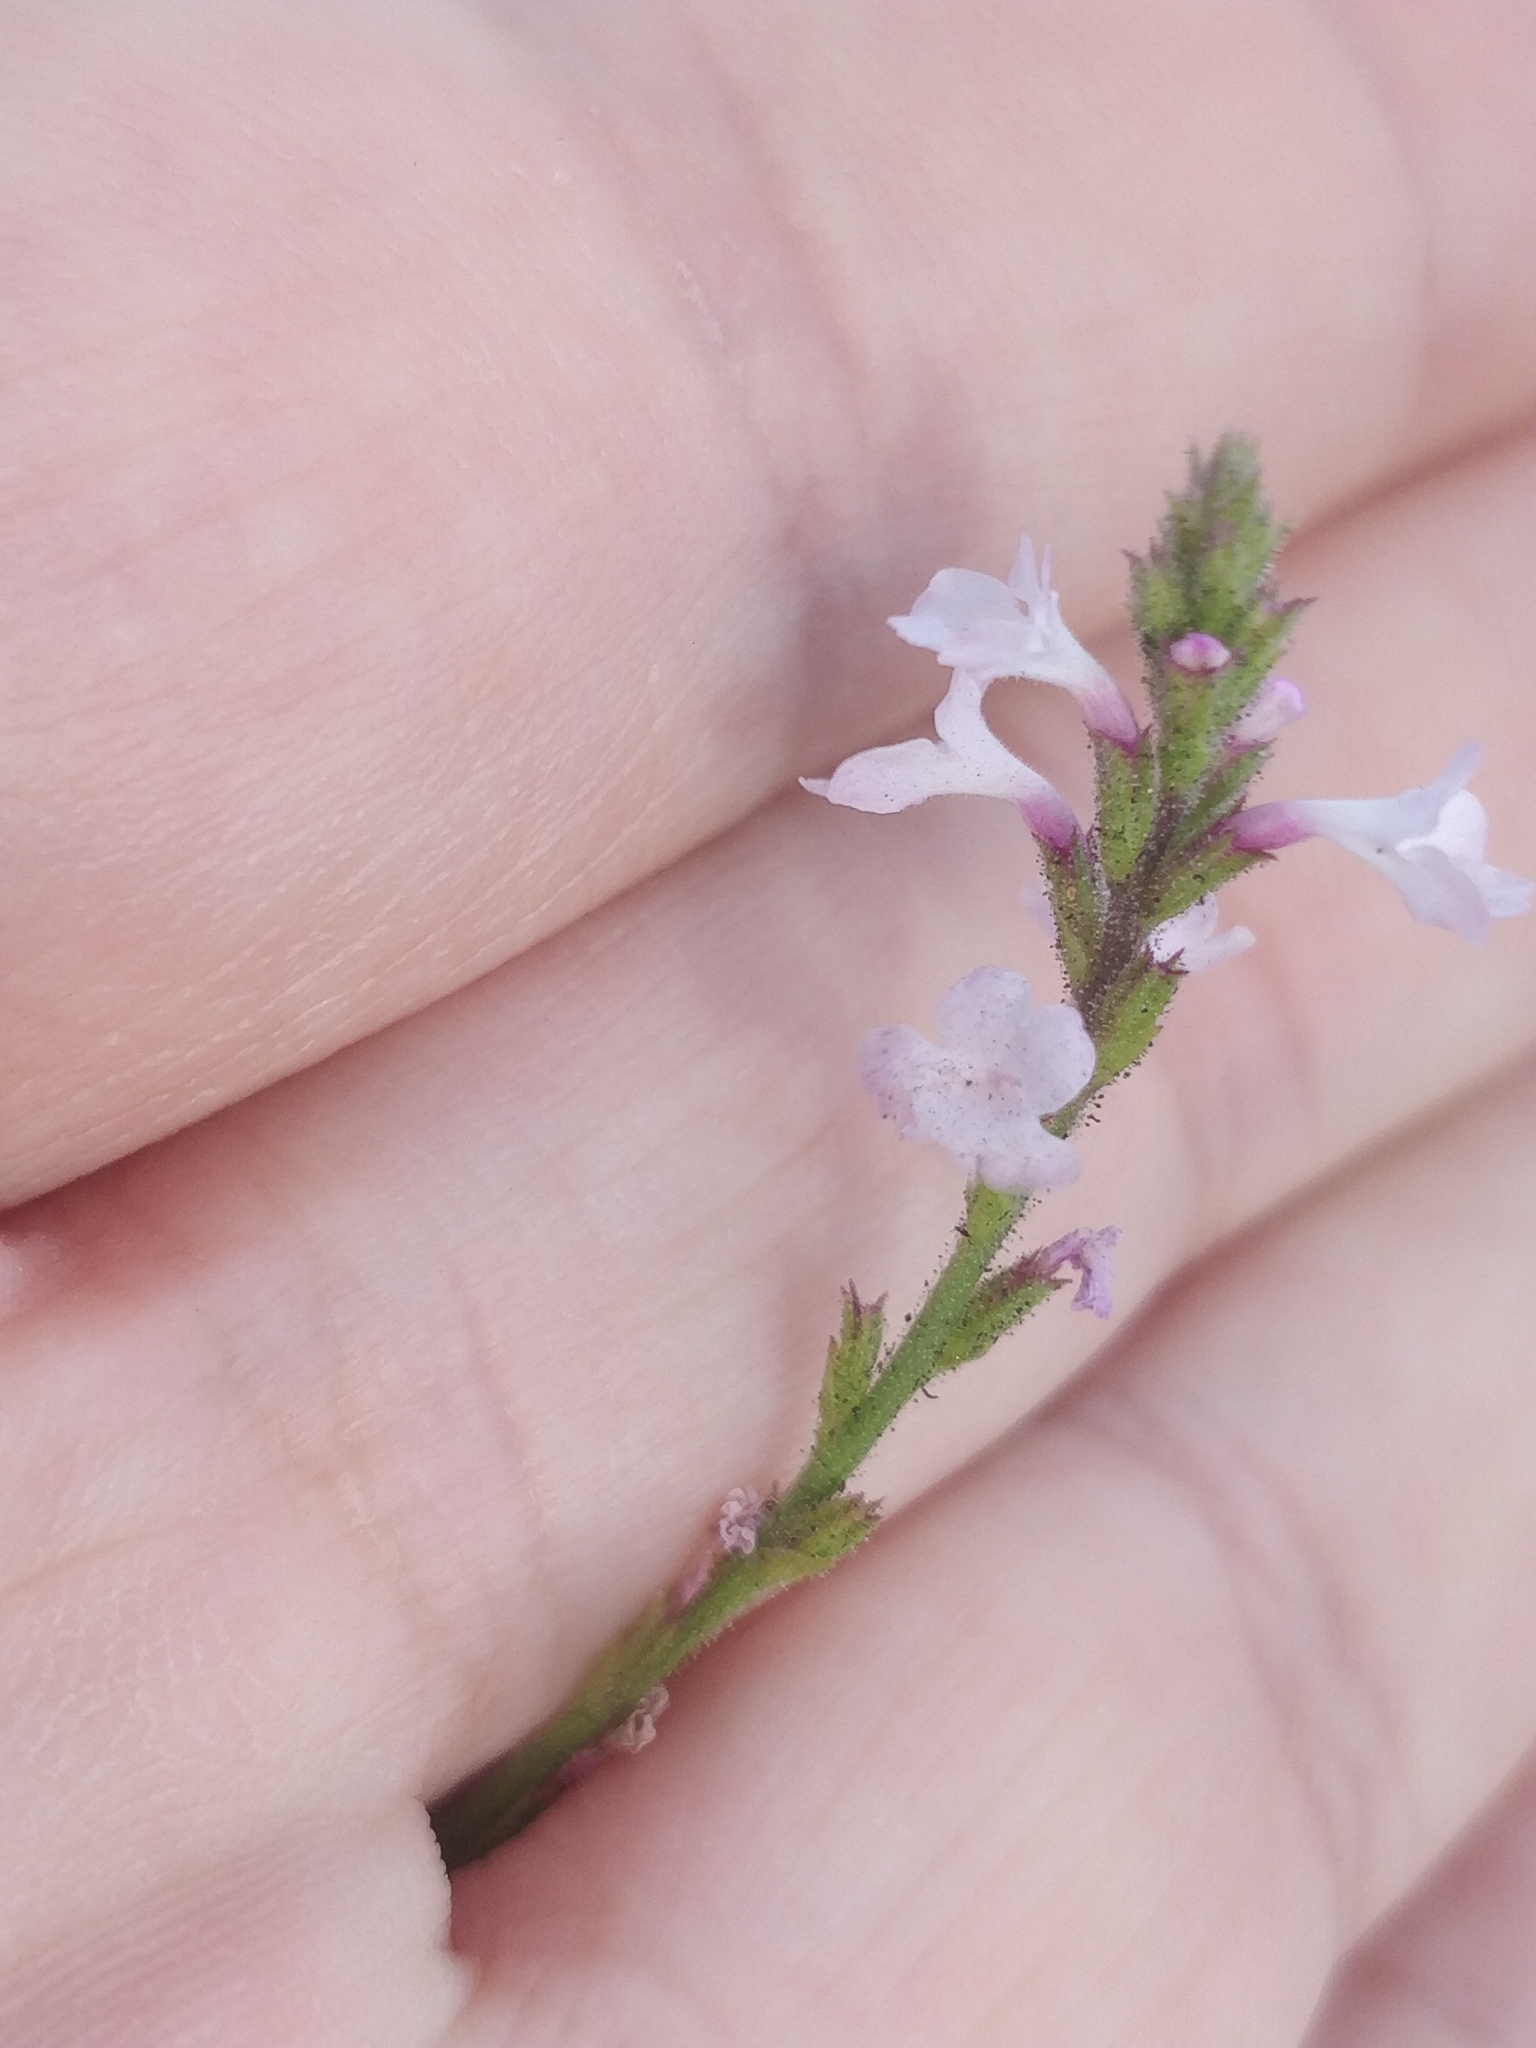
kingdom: Plantae
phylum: Tracheophyta
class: Magnoliopsida
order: Lamiales
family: Verbenaceae
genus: Verbena
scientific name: Verbena officinalis
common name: Vervain
